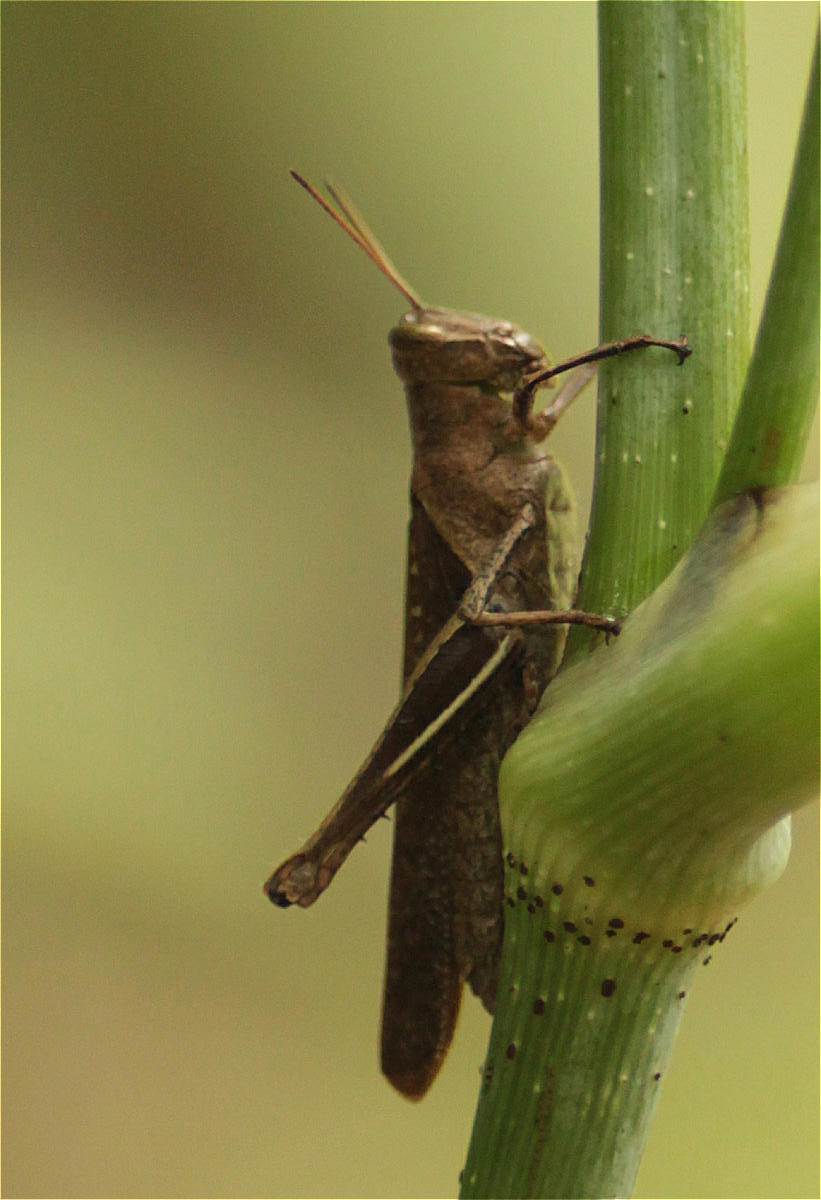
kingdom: Animalia
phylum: Arthropoda
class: Insecta
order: Orthoptera
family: Acrididae
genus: Abracris
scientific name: Abracris flavolineata
